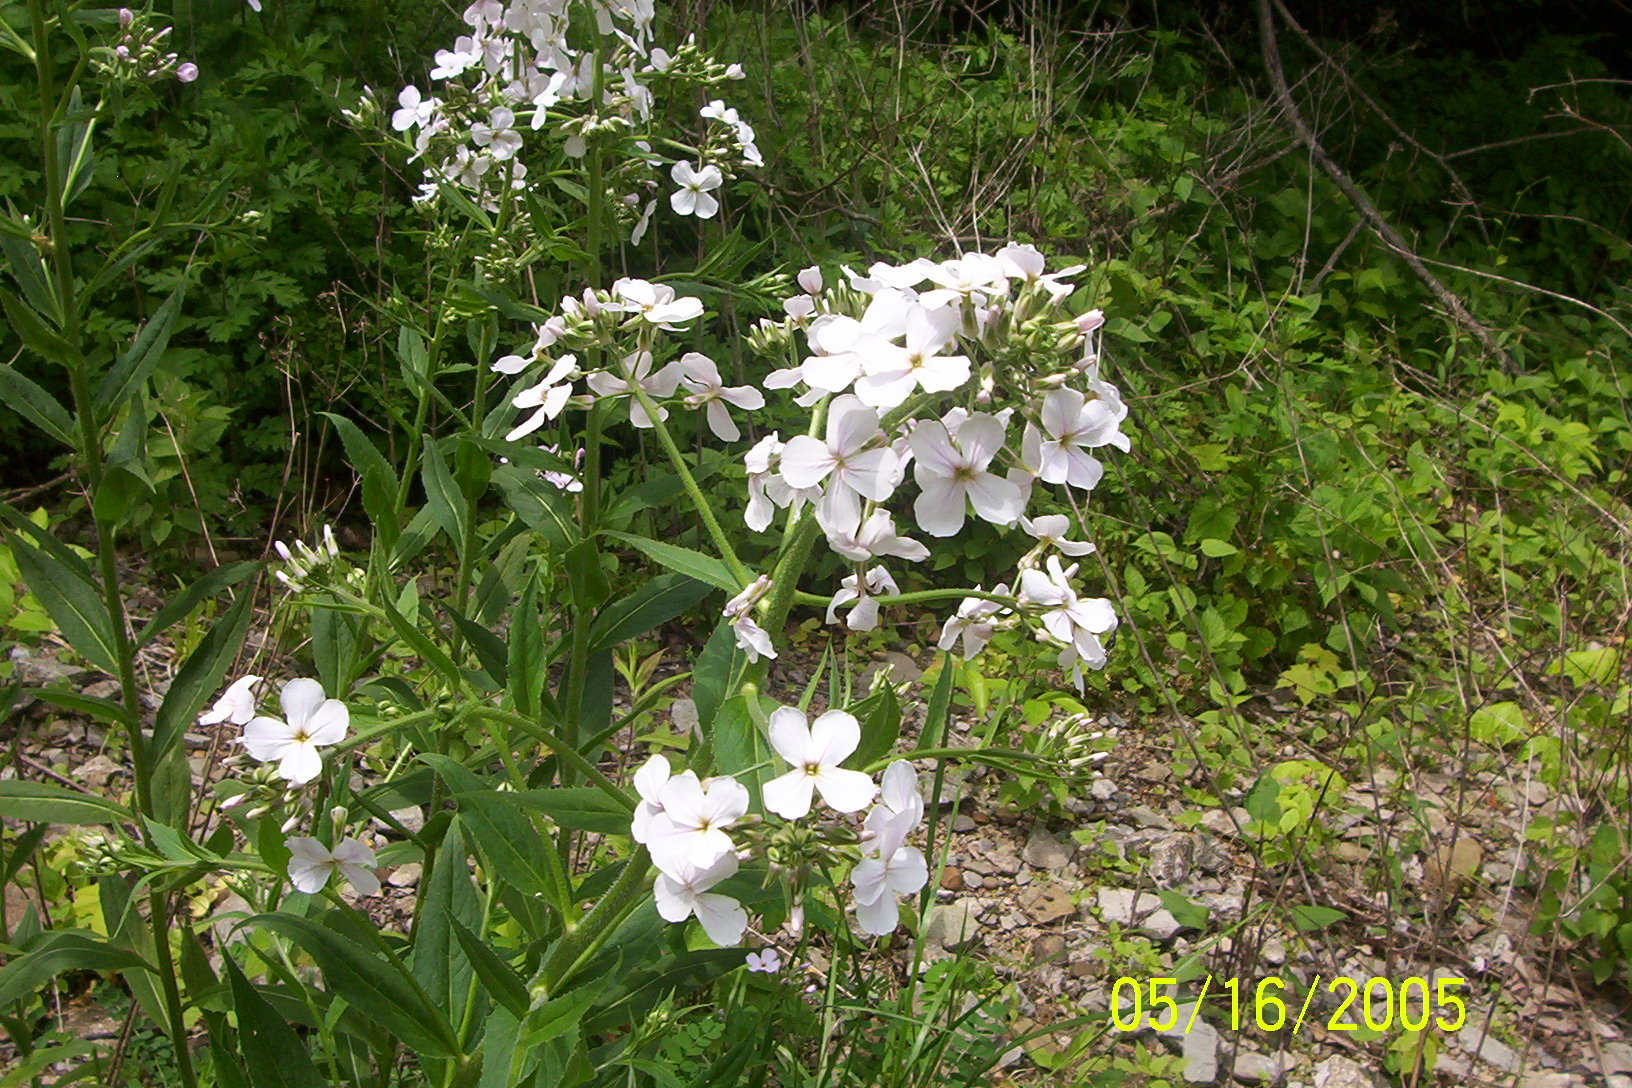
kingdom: Plantae
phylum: Tracheophyta
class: Magnoliopsida
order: Brassicales
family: Brassicaceae
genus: Hesperis
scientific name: Hesperis matronalis
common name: Dame's-violet
